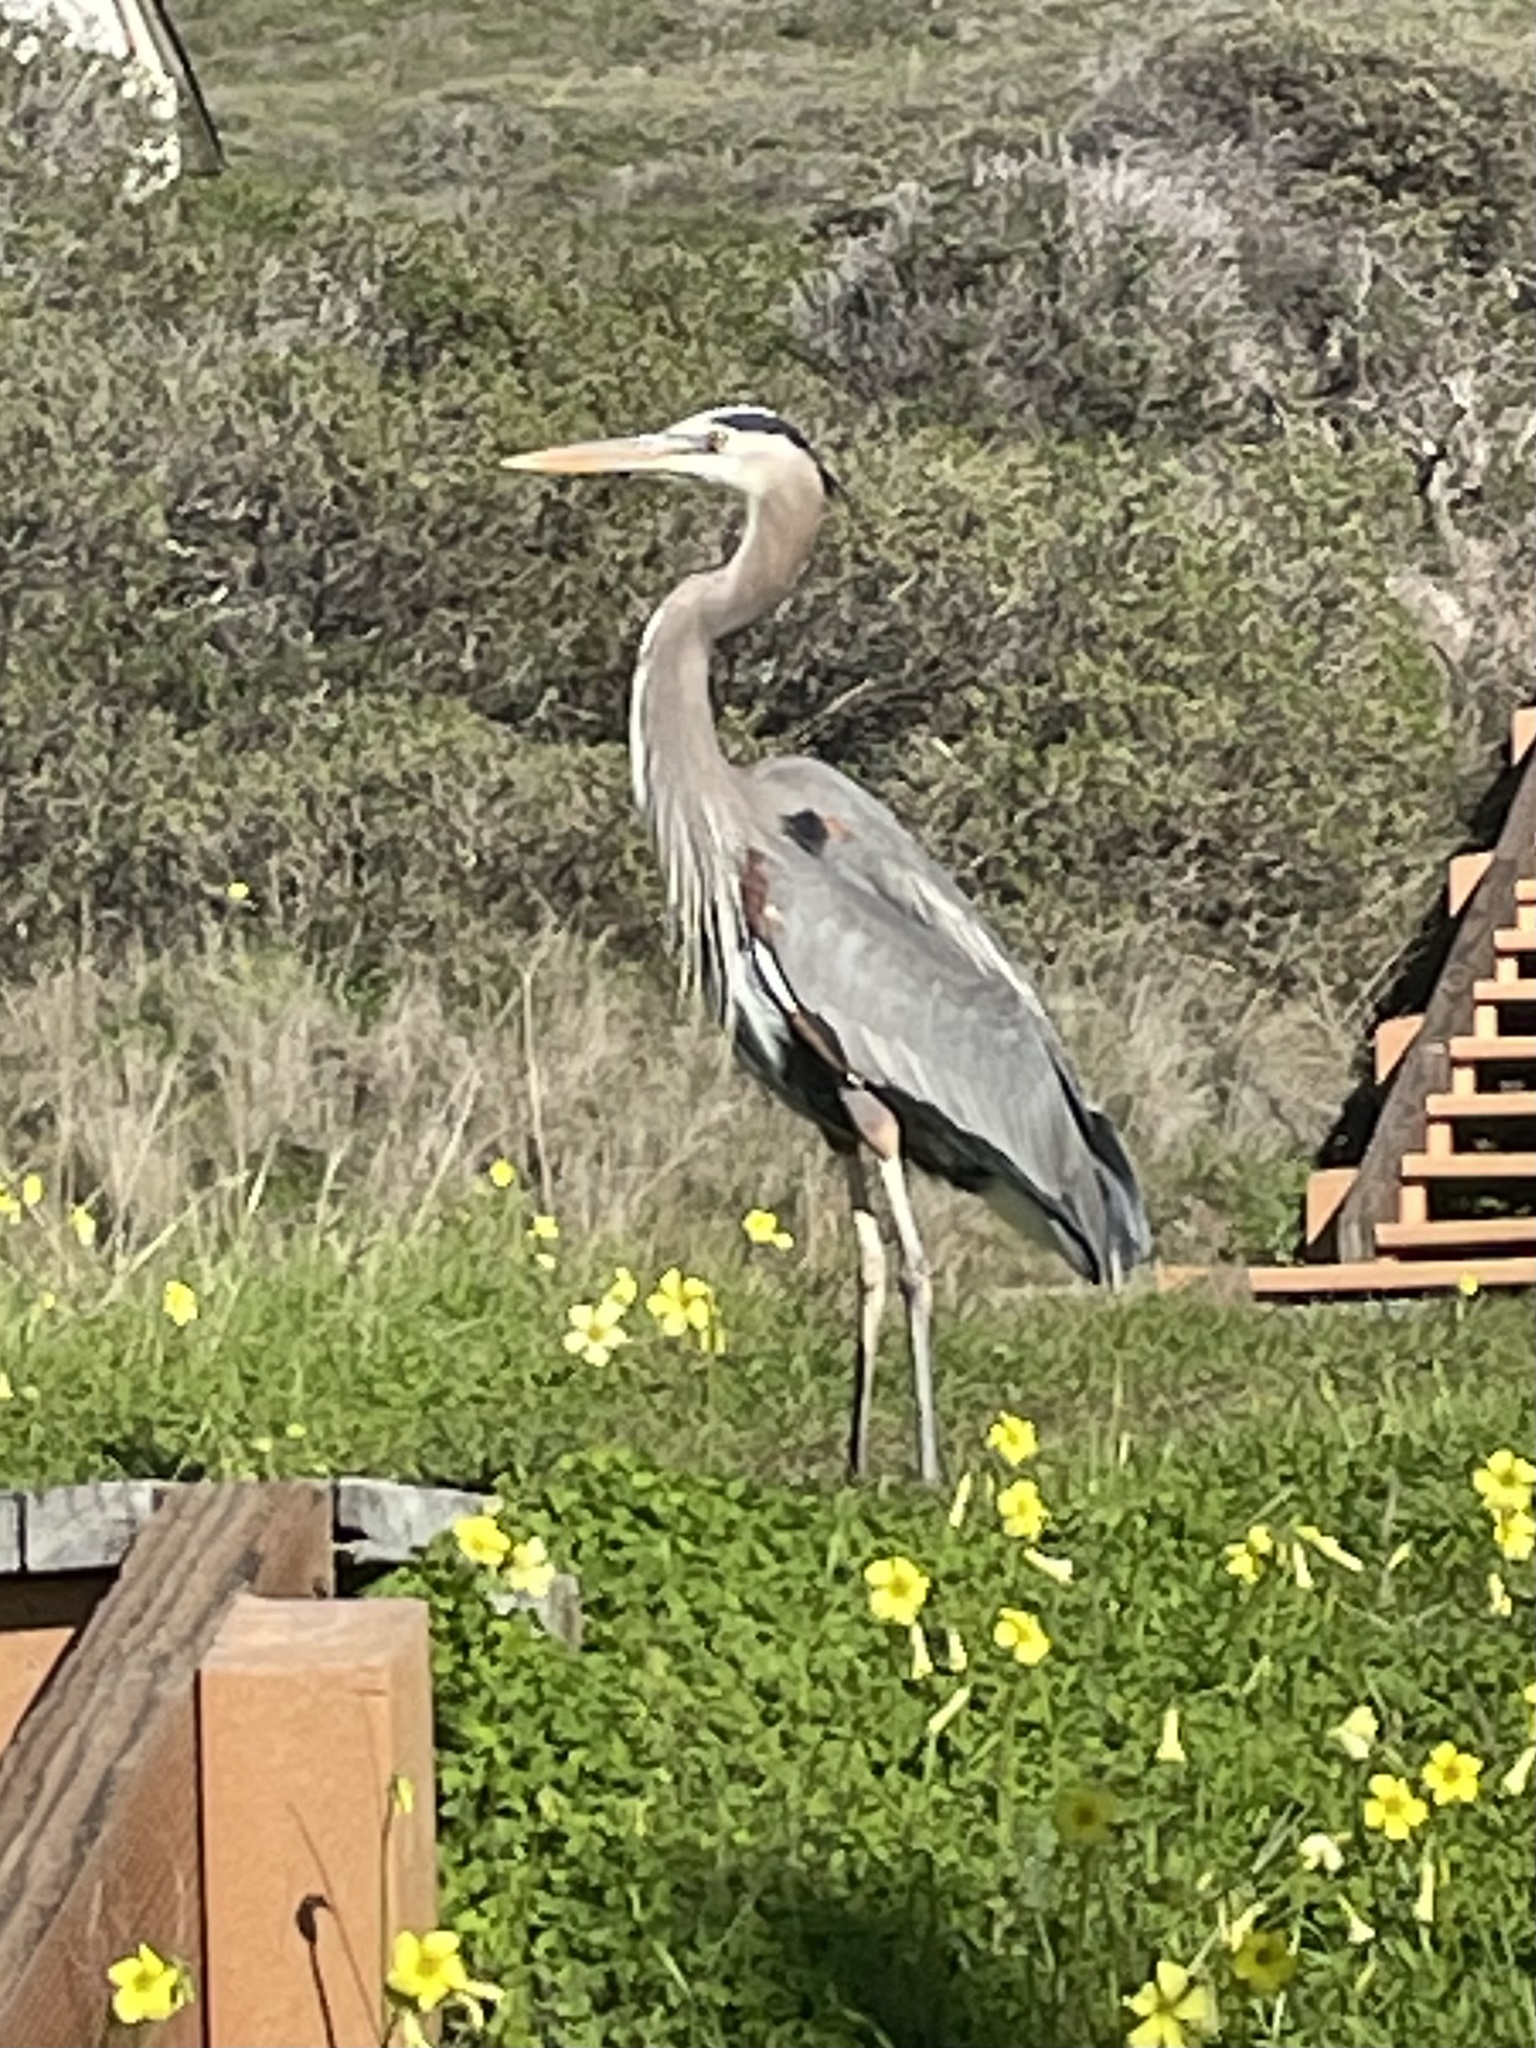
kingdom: Animalia
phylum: Chordata
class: Aves
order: Pelecaniformes
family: Ardeidae
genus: Ardea
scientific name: Ardea herodias
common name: Great blue heron
